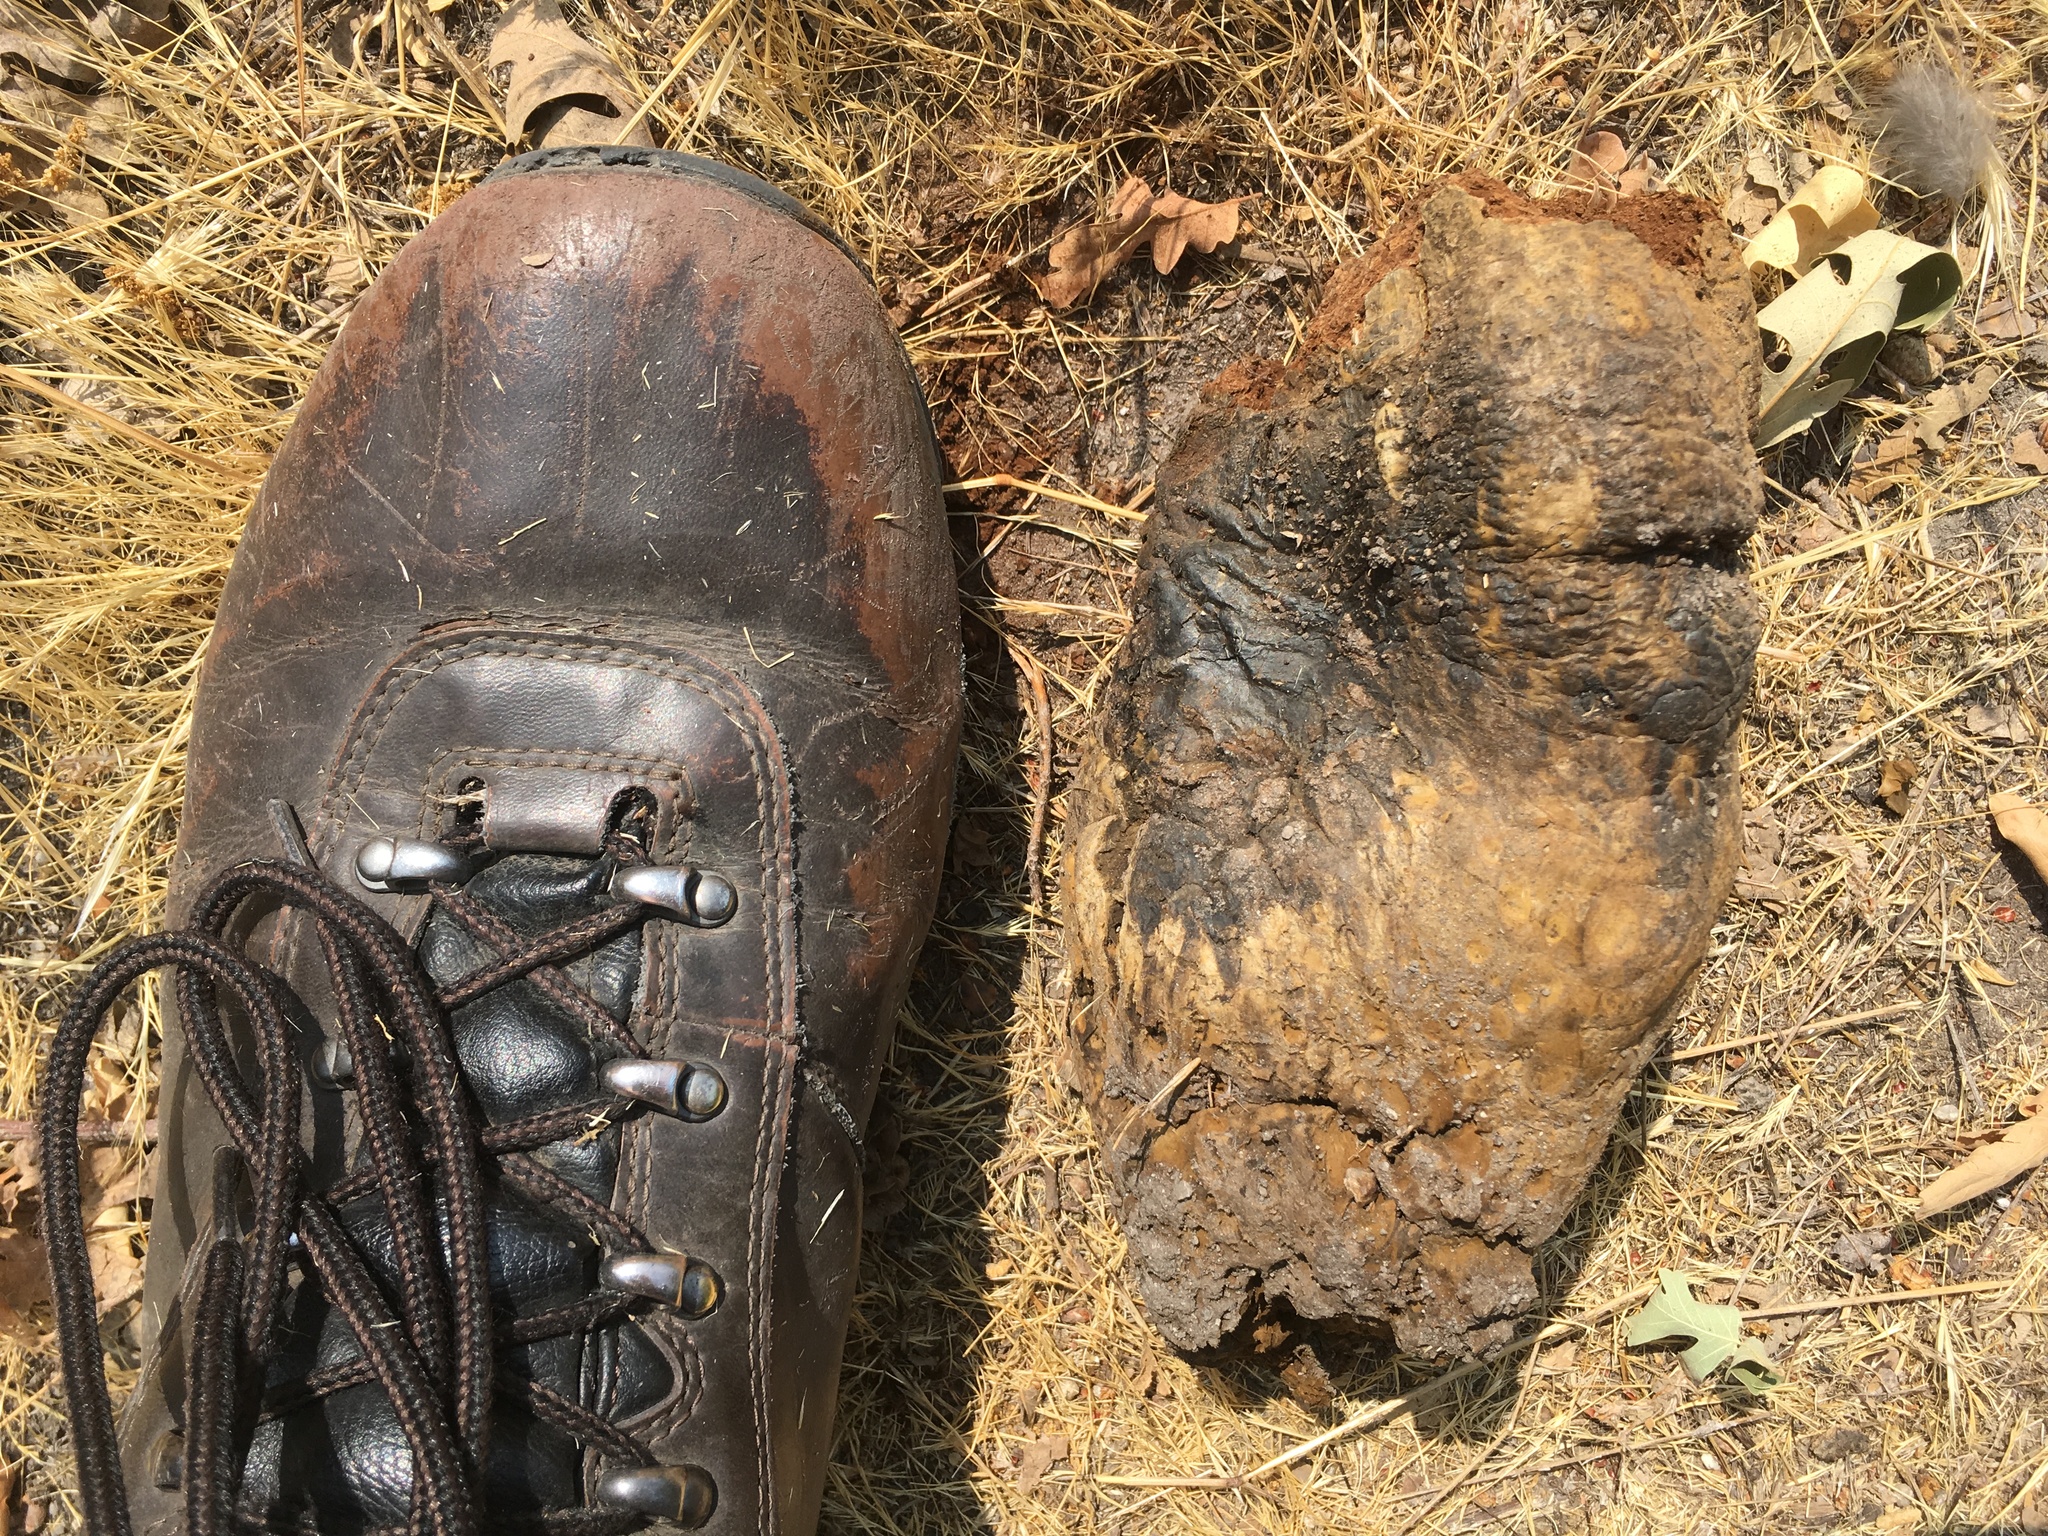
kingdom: Fungi
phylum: Basidiomycota
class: Agaricomycetes
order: Boletales
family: Sclerodermataceae
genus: Pisolithus
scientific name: Pisolithus tinctorius
